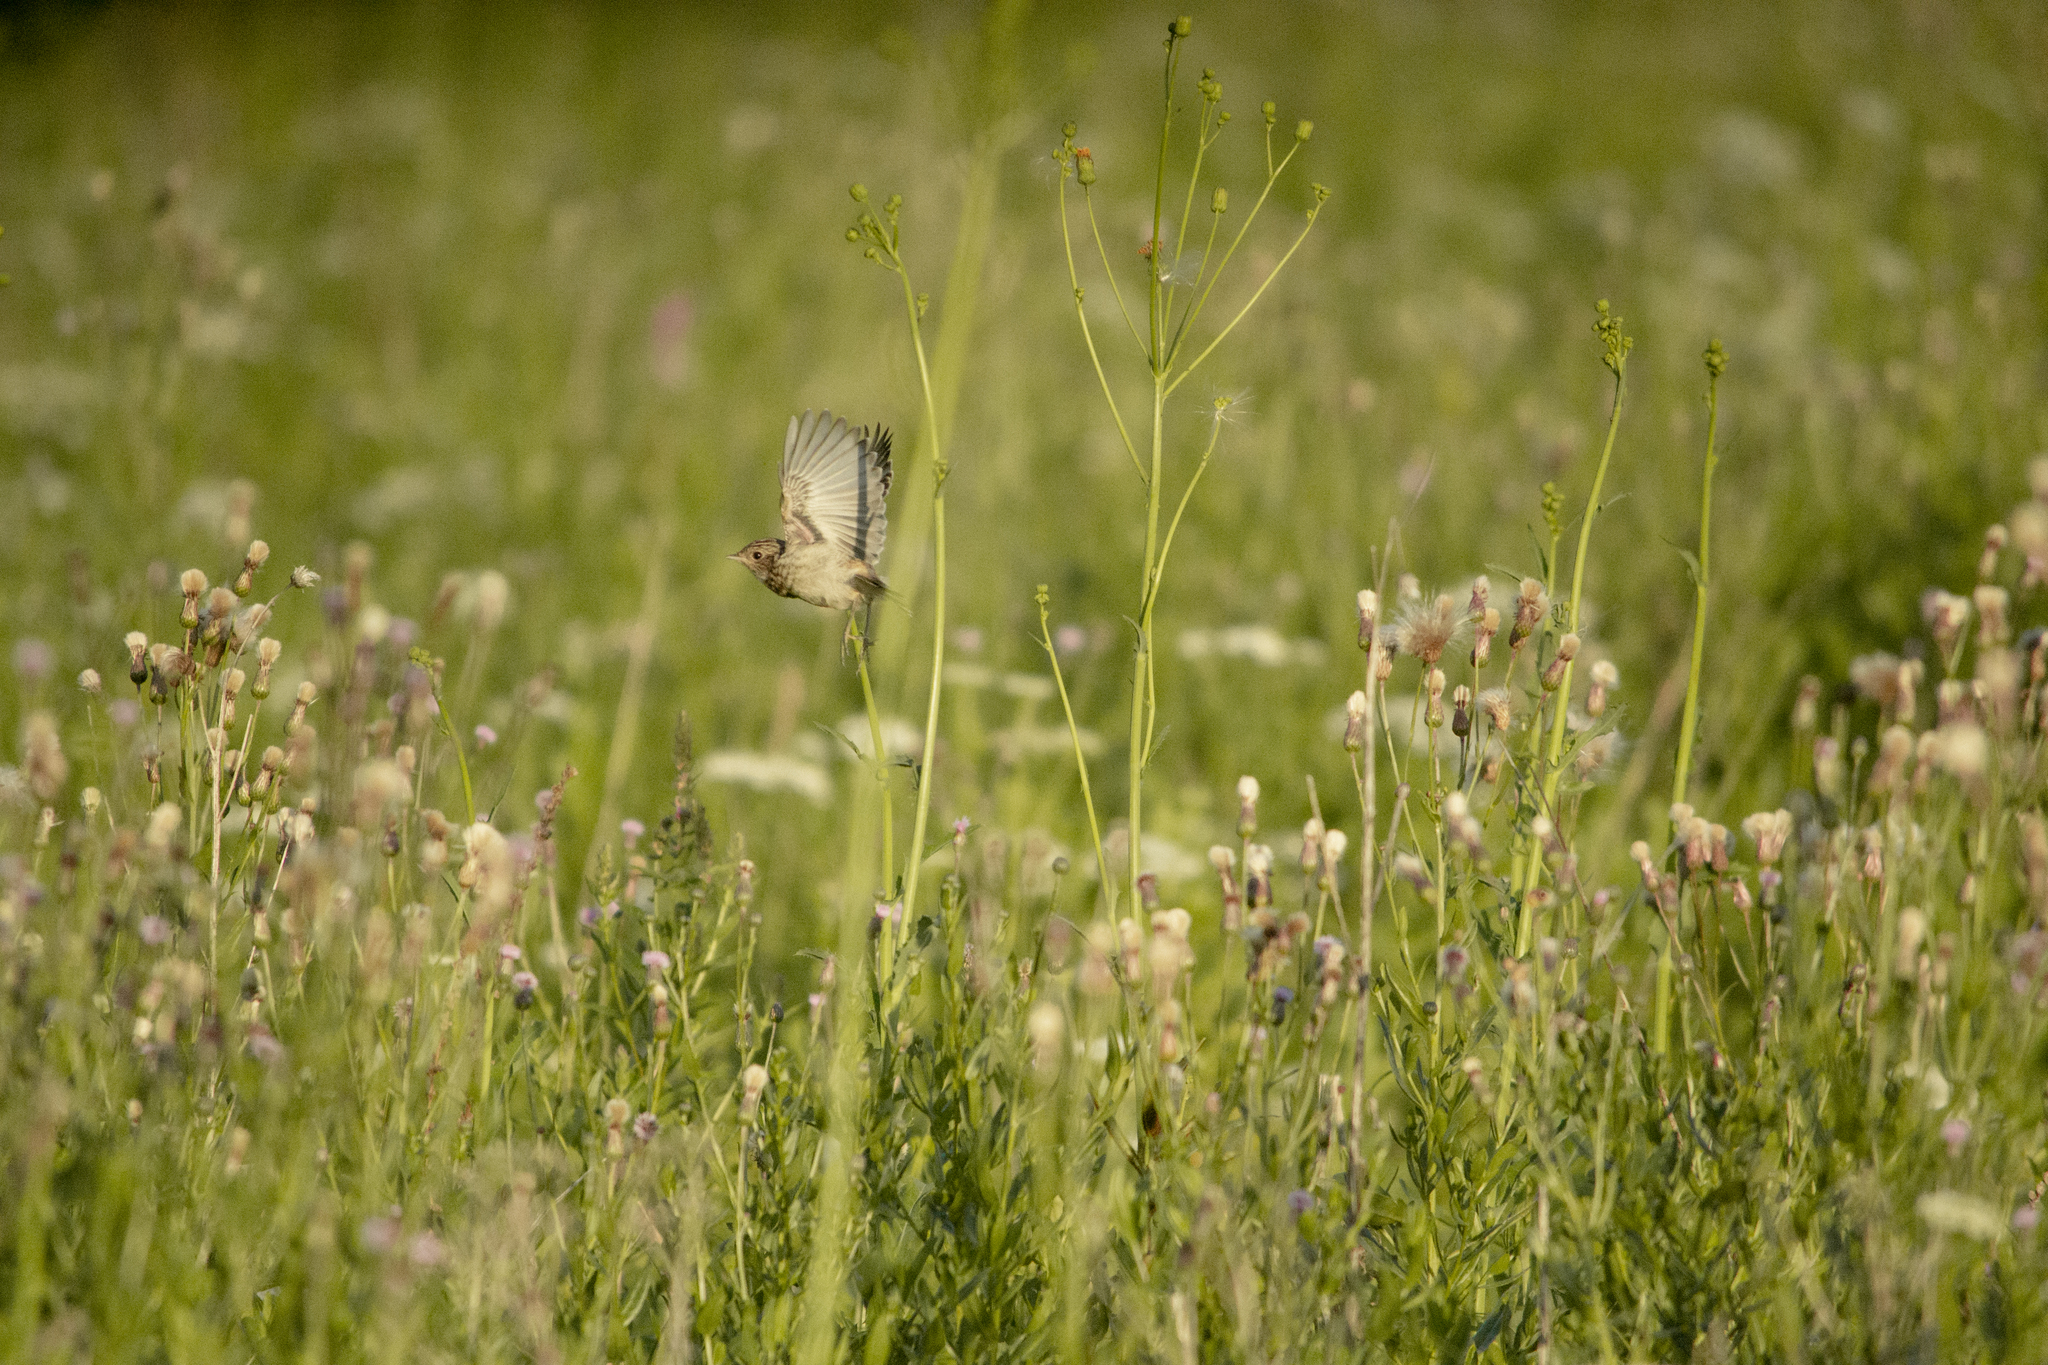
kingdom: Animalia
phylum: Chordata
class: Aves
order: Passeriformes
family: Muscicapidae
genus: Saxicola
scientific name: Saxicola rubetra
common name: Whinchat
